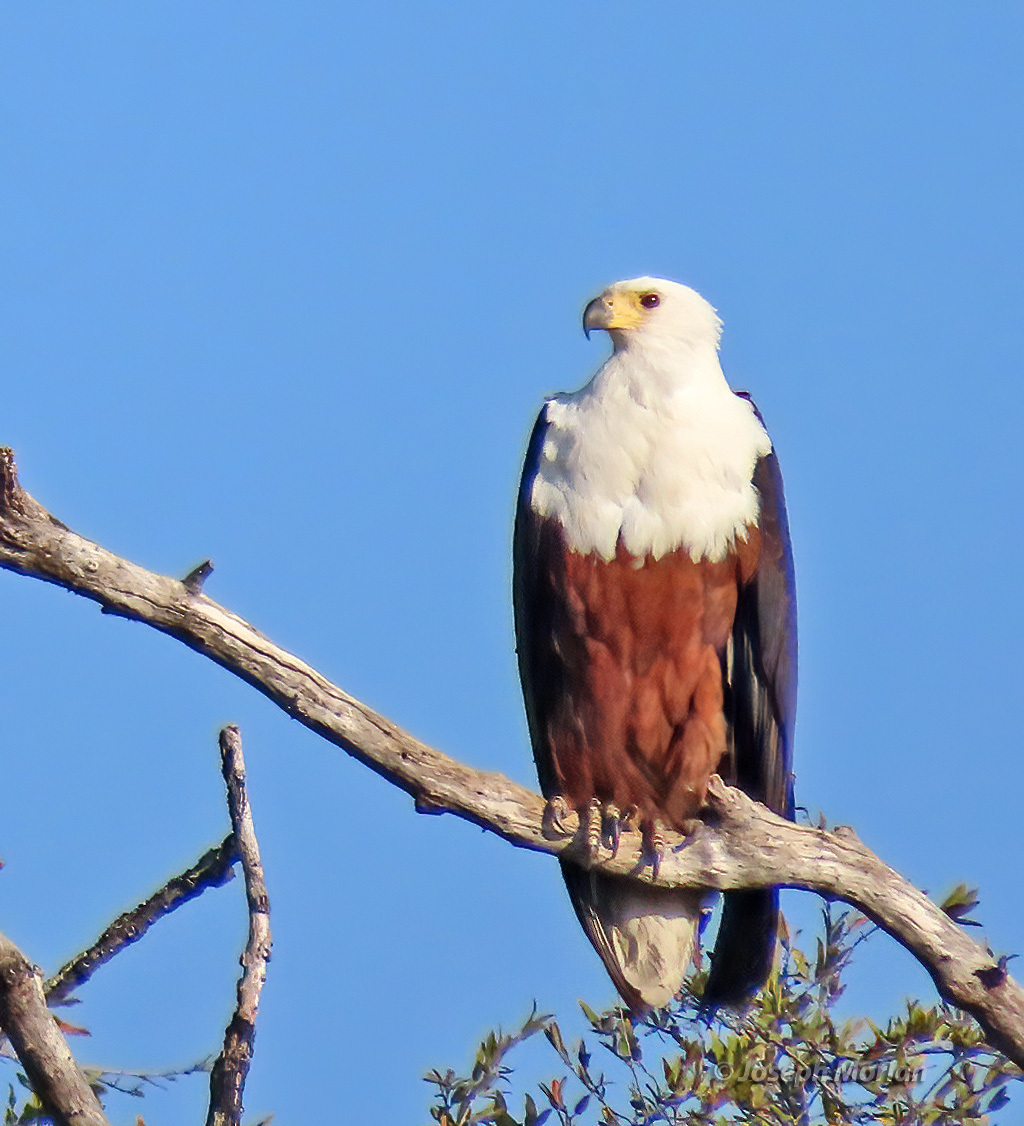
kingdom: Animalia
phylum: Chordata
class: Aves
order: Accipitriformes
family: Accipitridae
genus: Haliaeetus
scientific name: Haliaeetus vocifer
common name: African fish eagle
